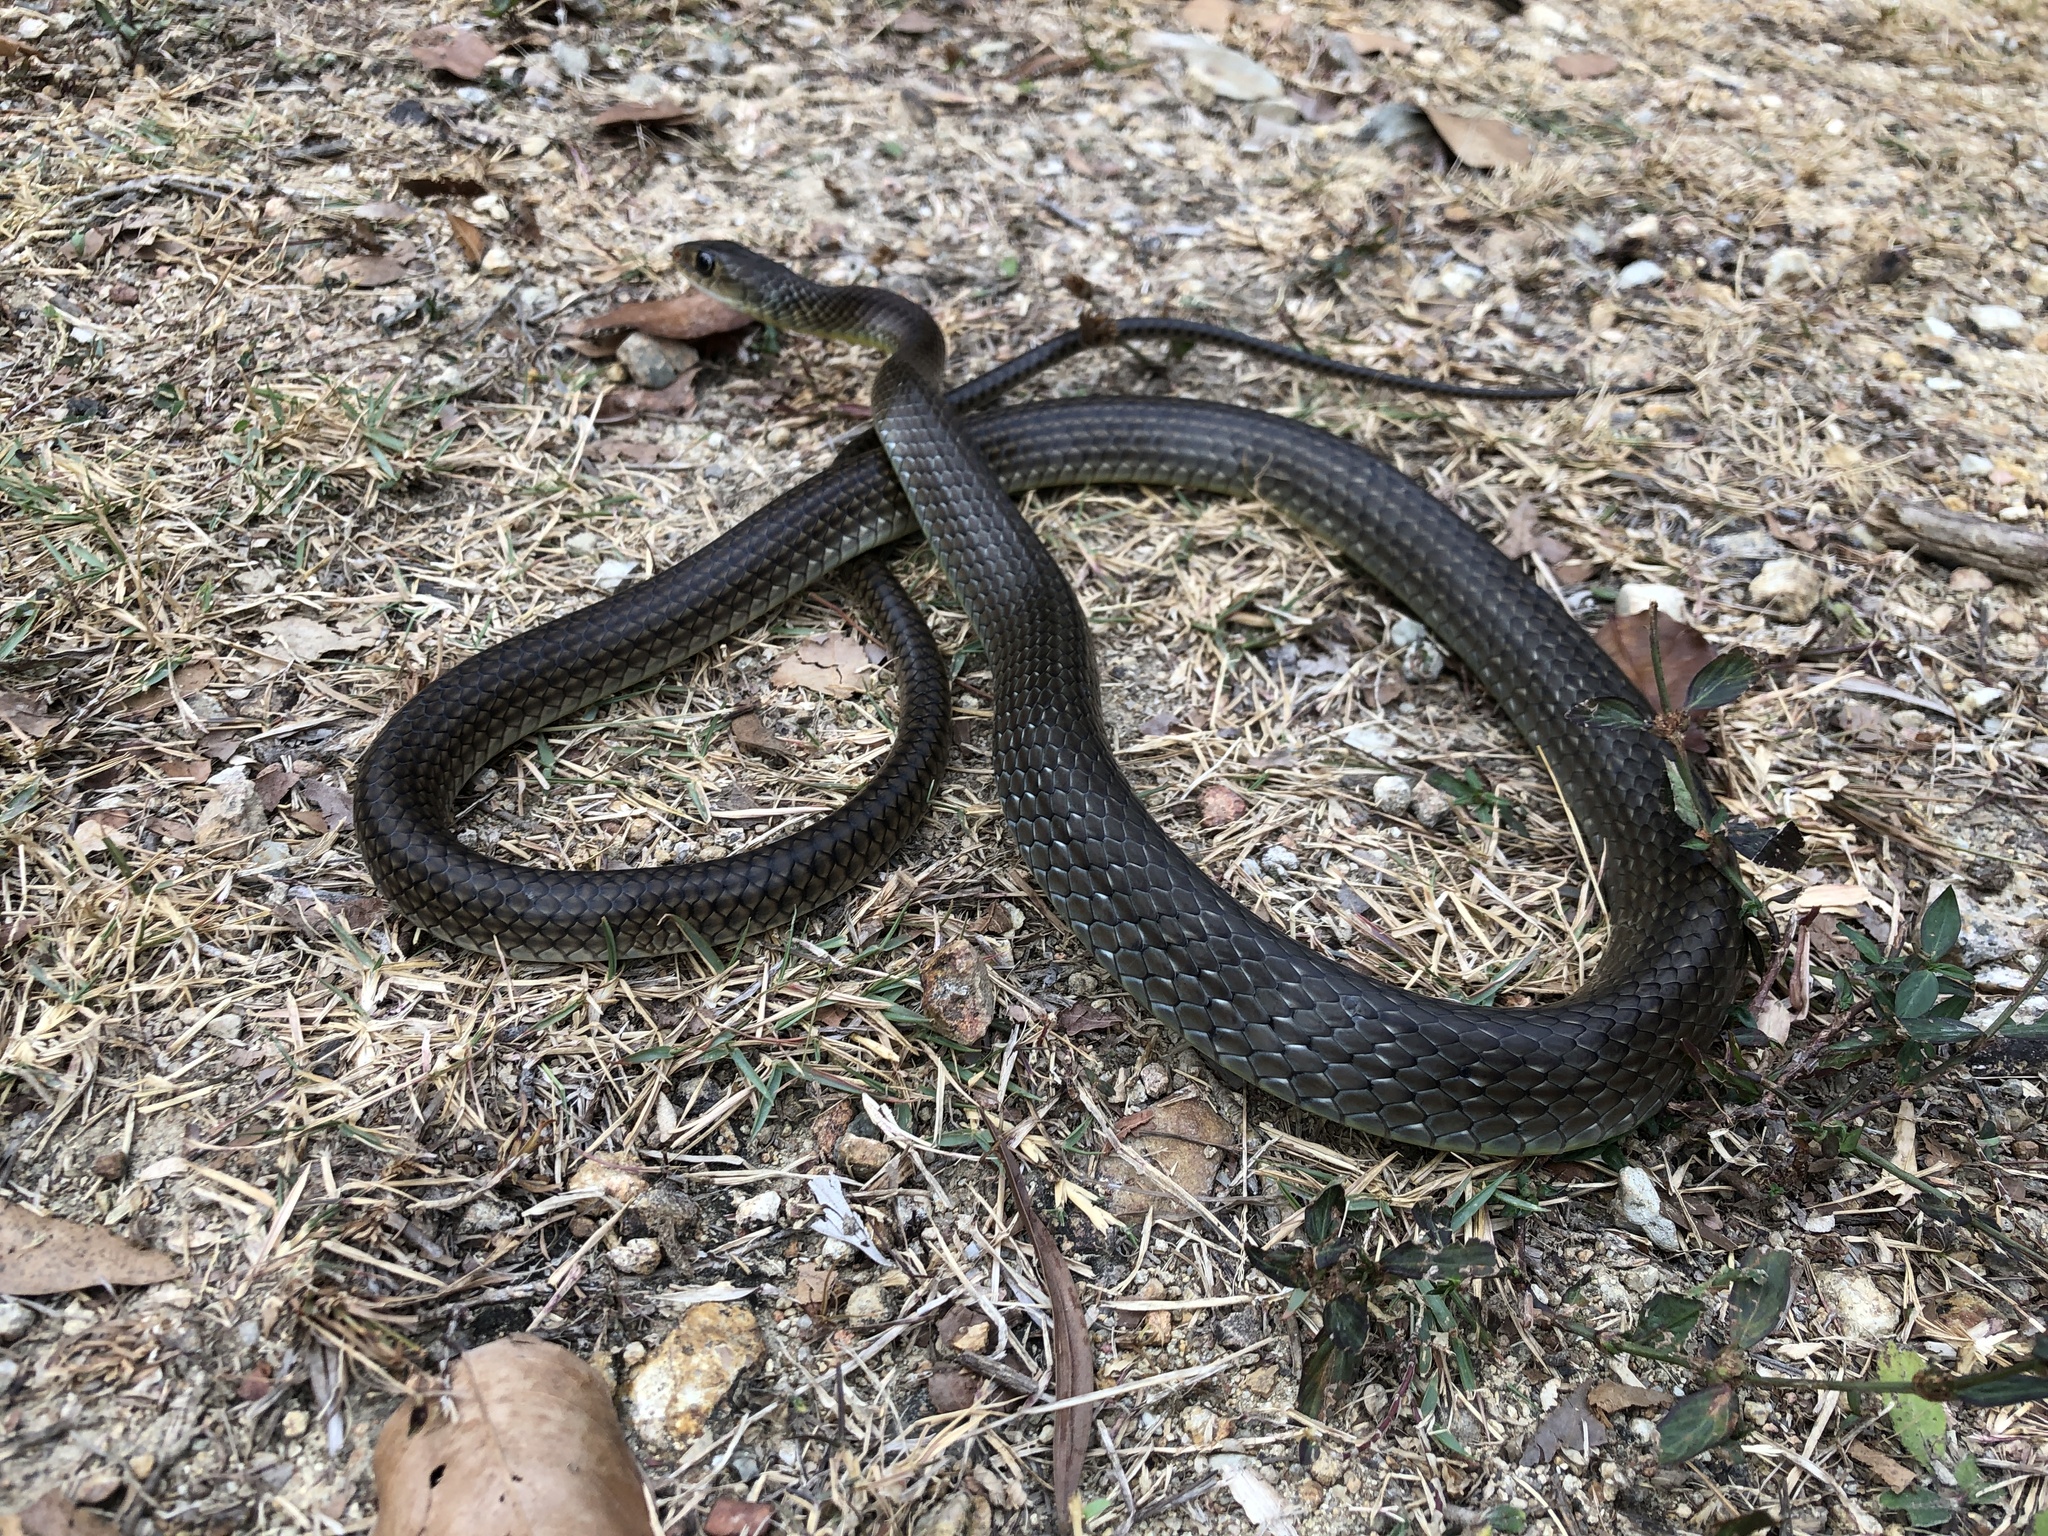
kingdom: Animalia
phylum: Chordata
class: Squamata
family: Colubridae
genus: Ptyas
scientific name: Ptyas korros
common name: Indo-chinese rat snake
